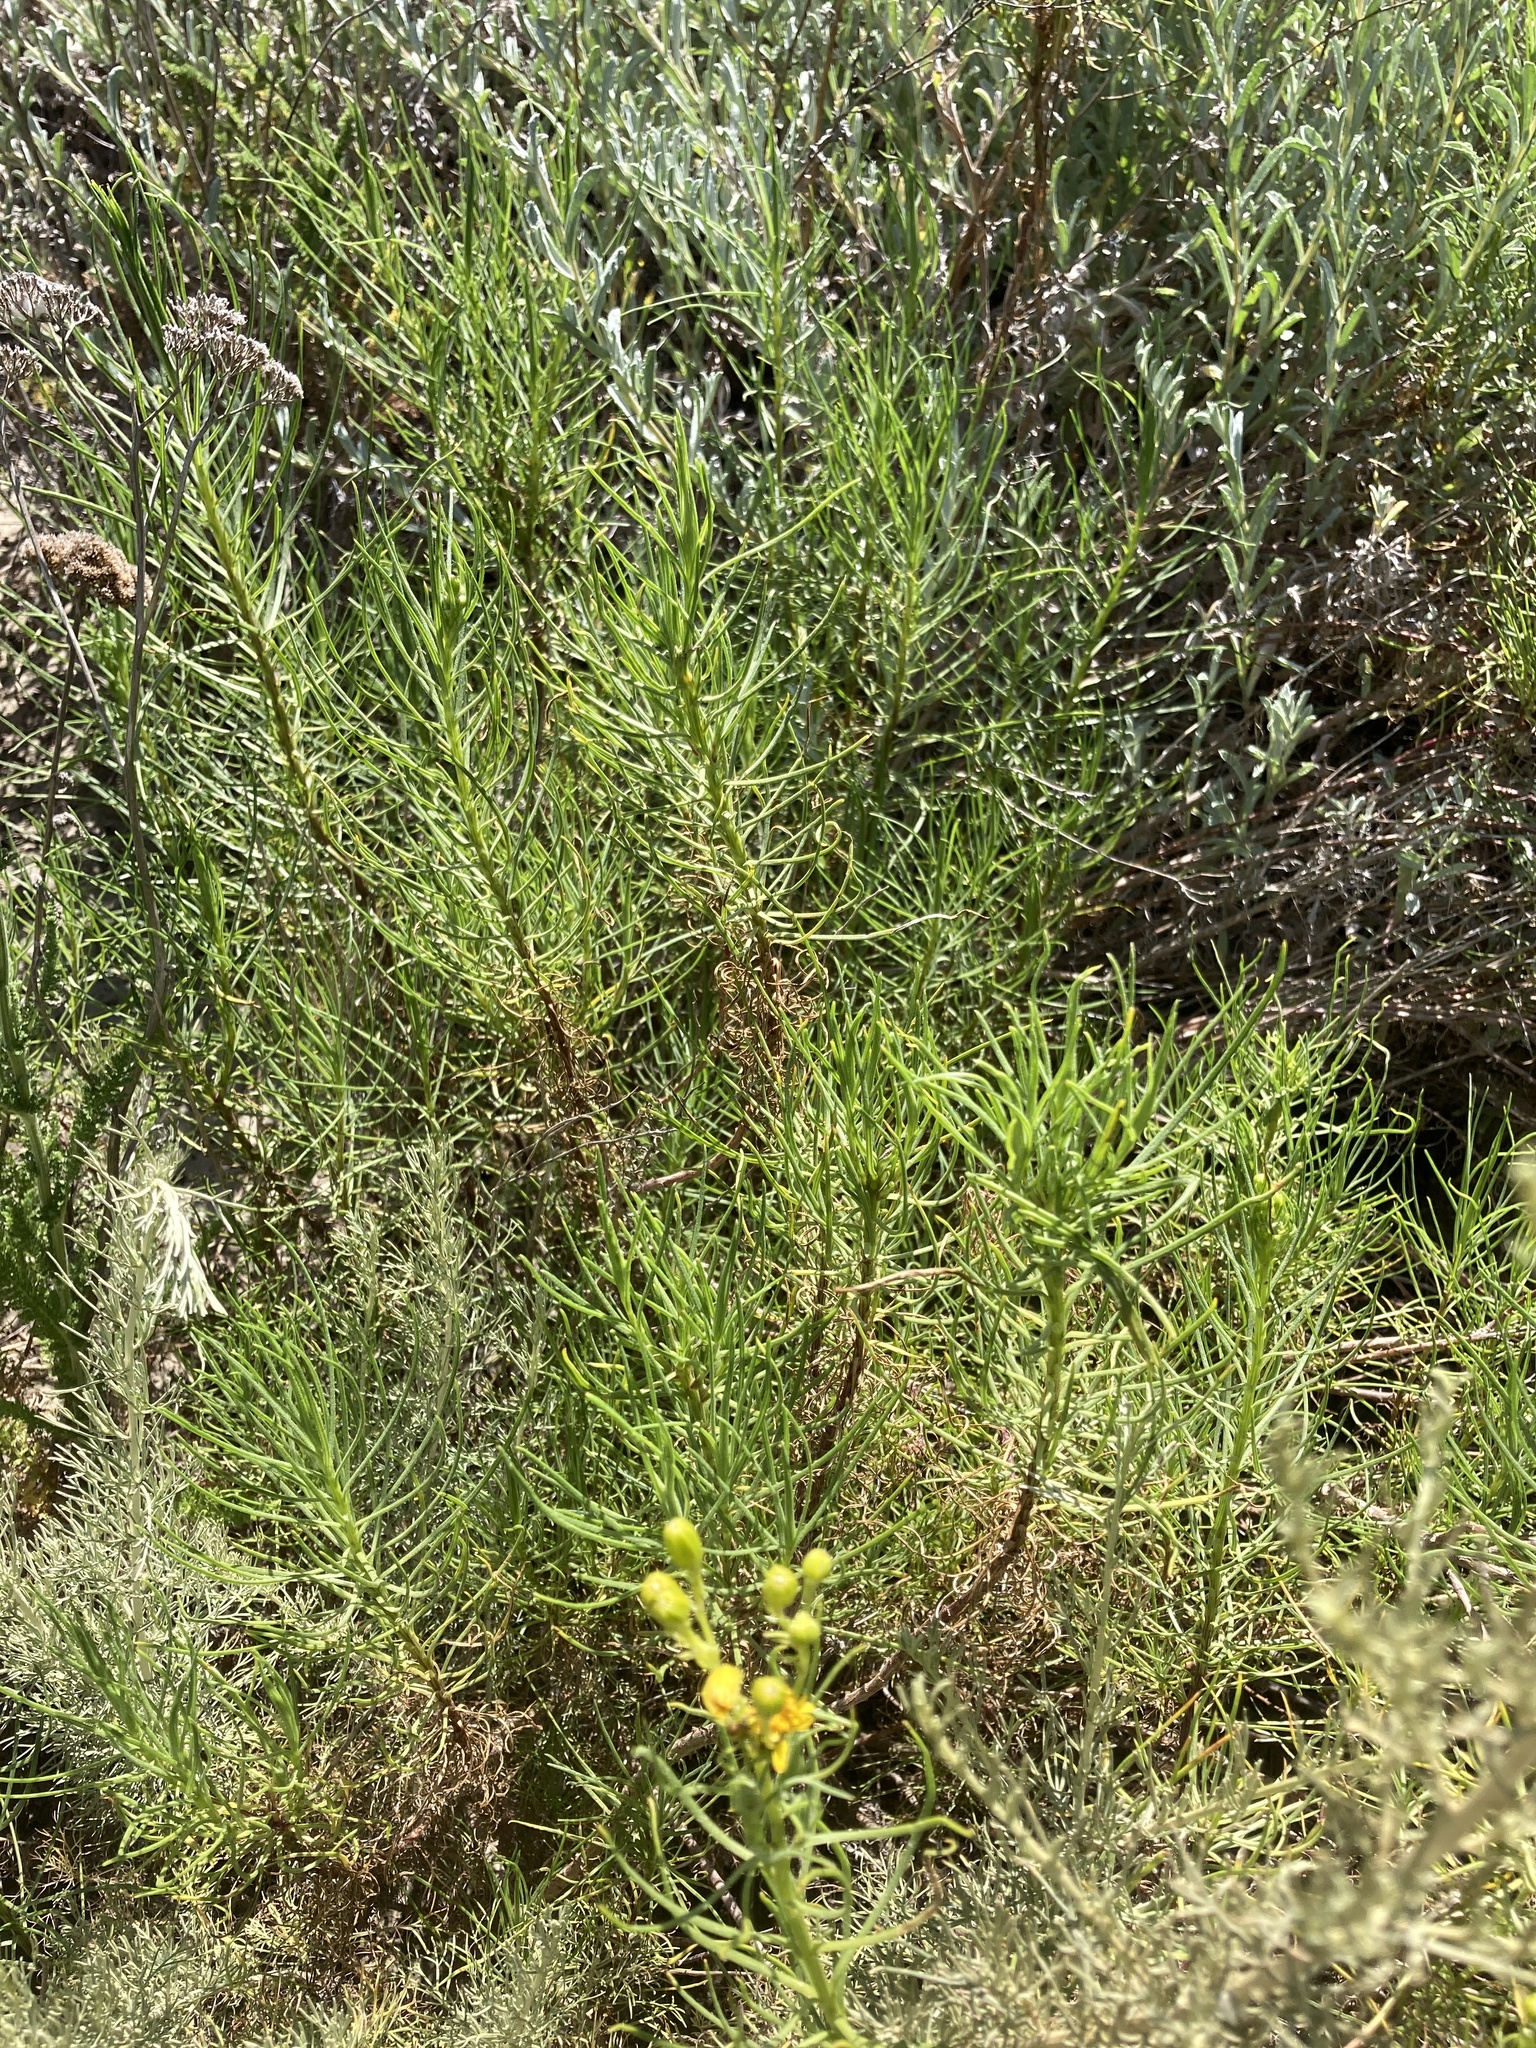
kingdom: Plantae
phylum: Tracheophyta
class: Magnoliopsida
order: Asterales
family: Asteraceae
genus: Senecio
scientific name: Senecio blochmaniae
